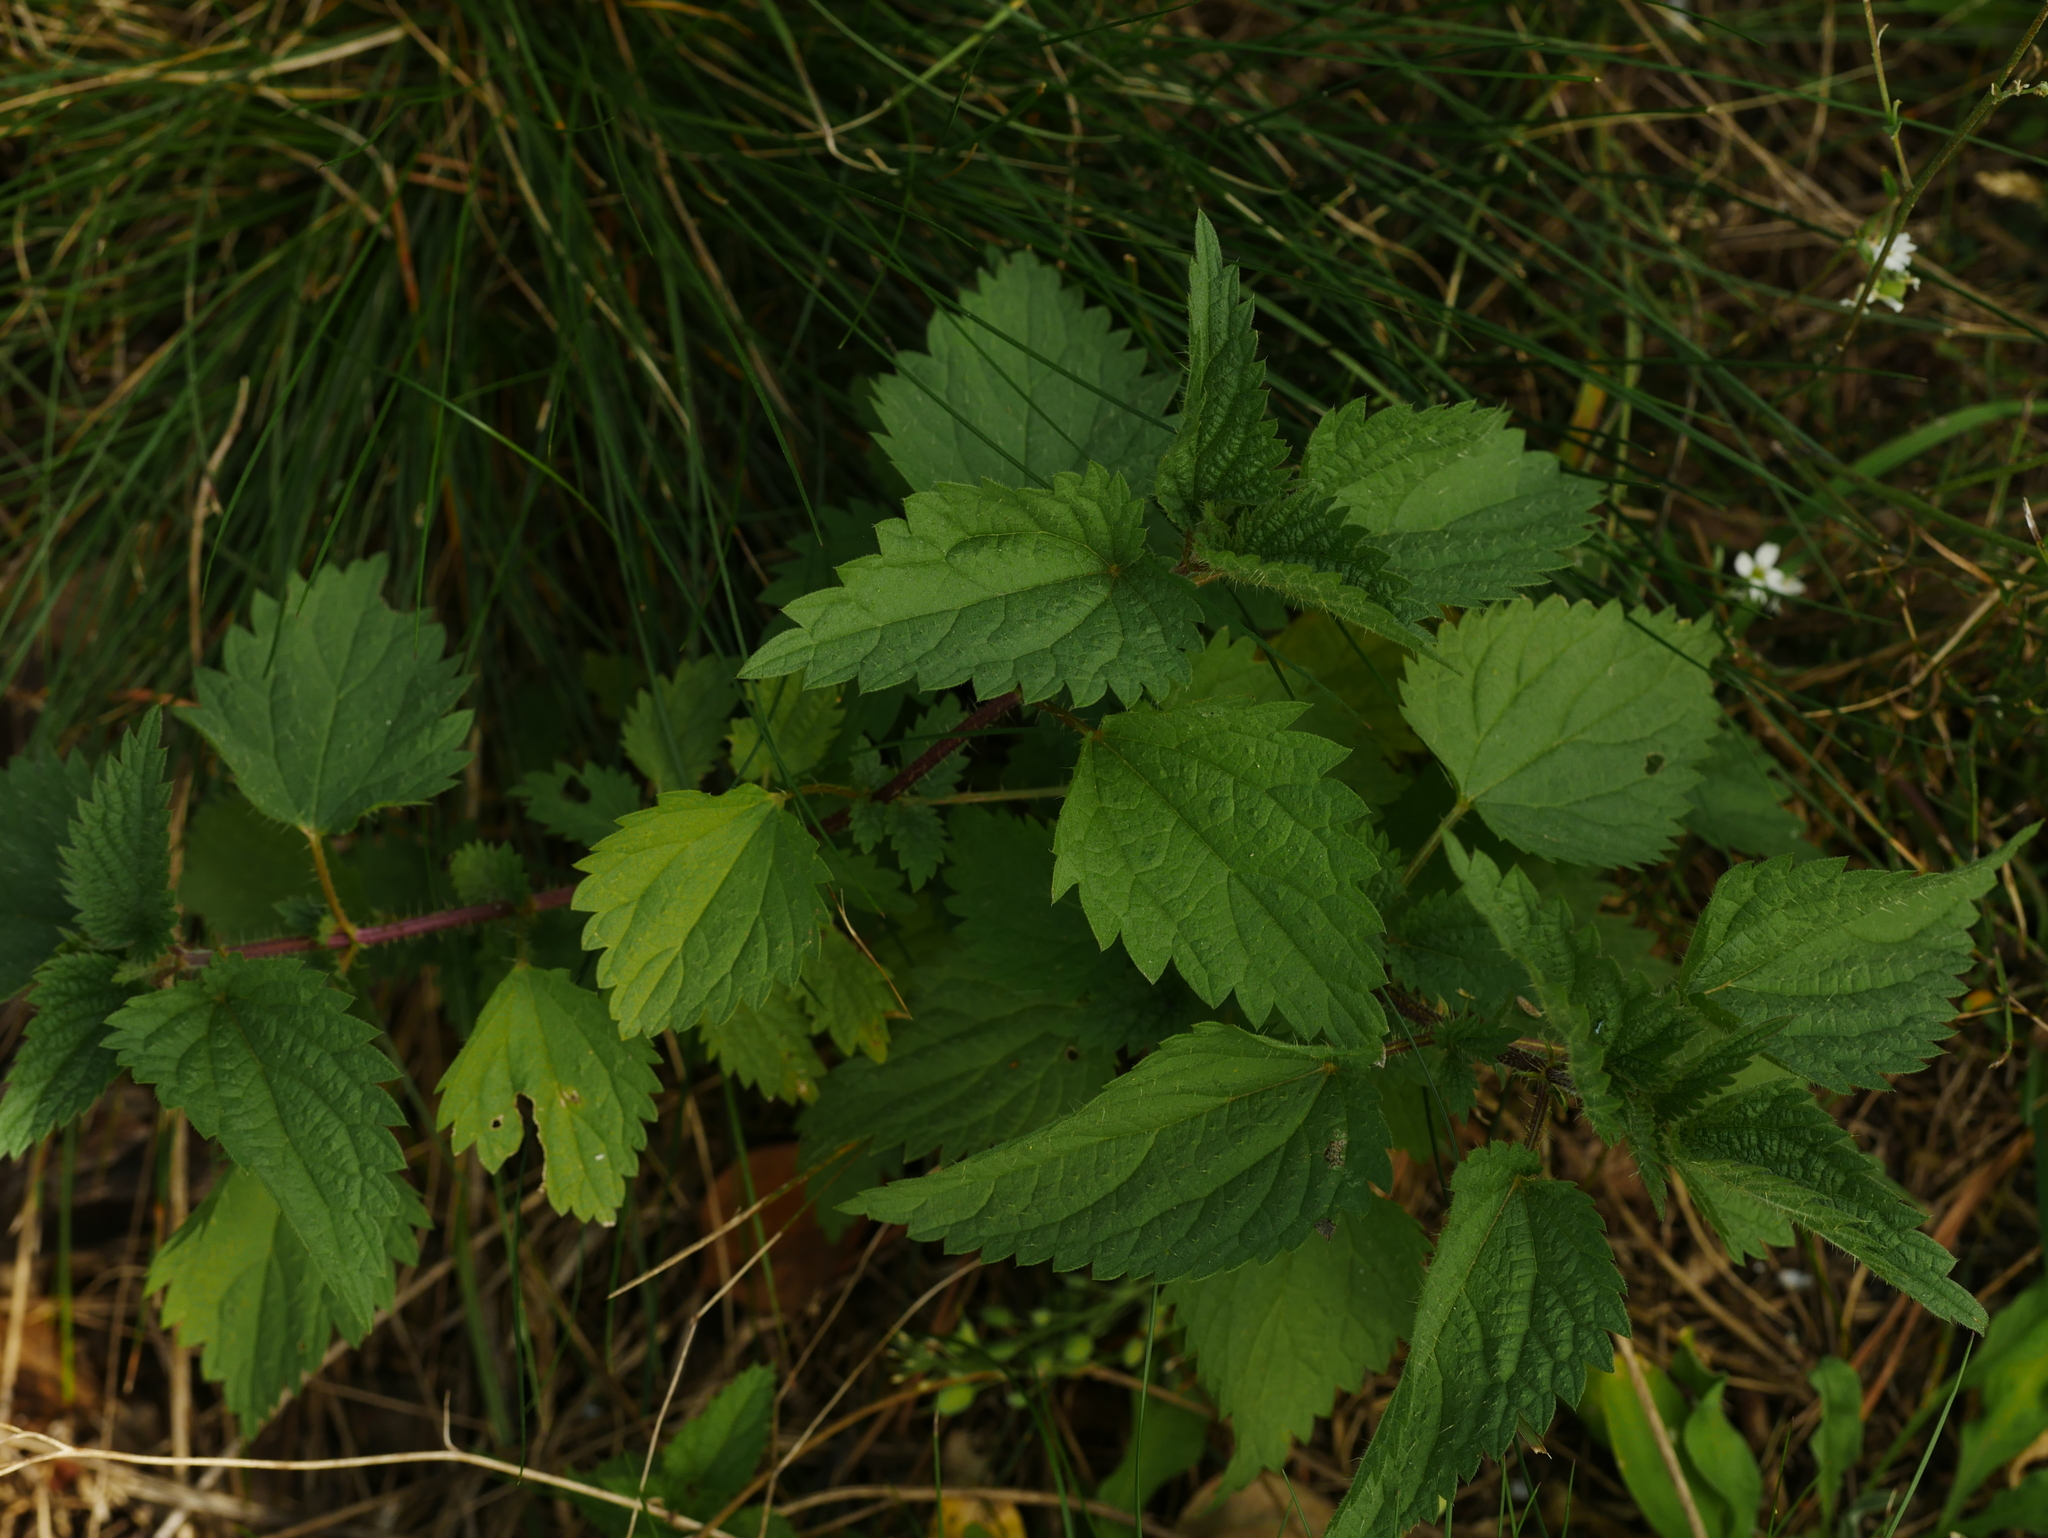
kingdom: Plantae
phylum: Tracheophyta
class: Magnoliopsida
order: Rosales
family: Urticaceae
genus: Urtica
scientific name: Urtica dioica
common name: Common nettle
